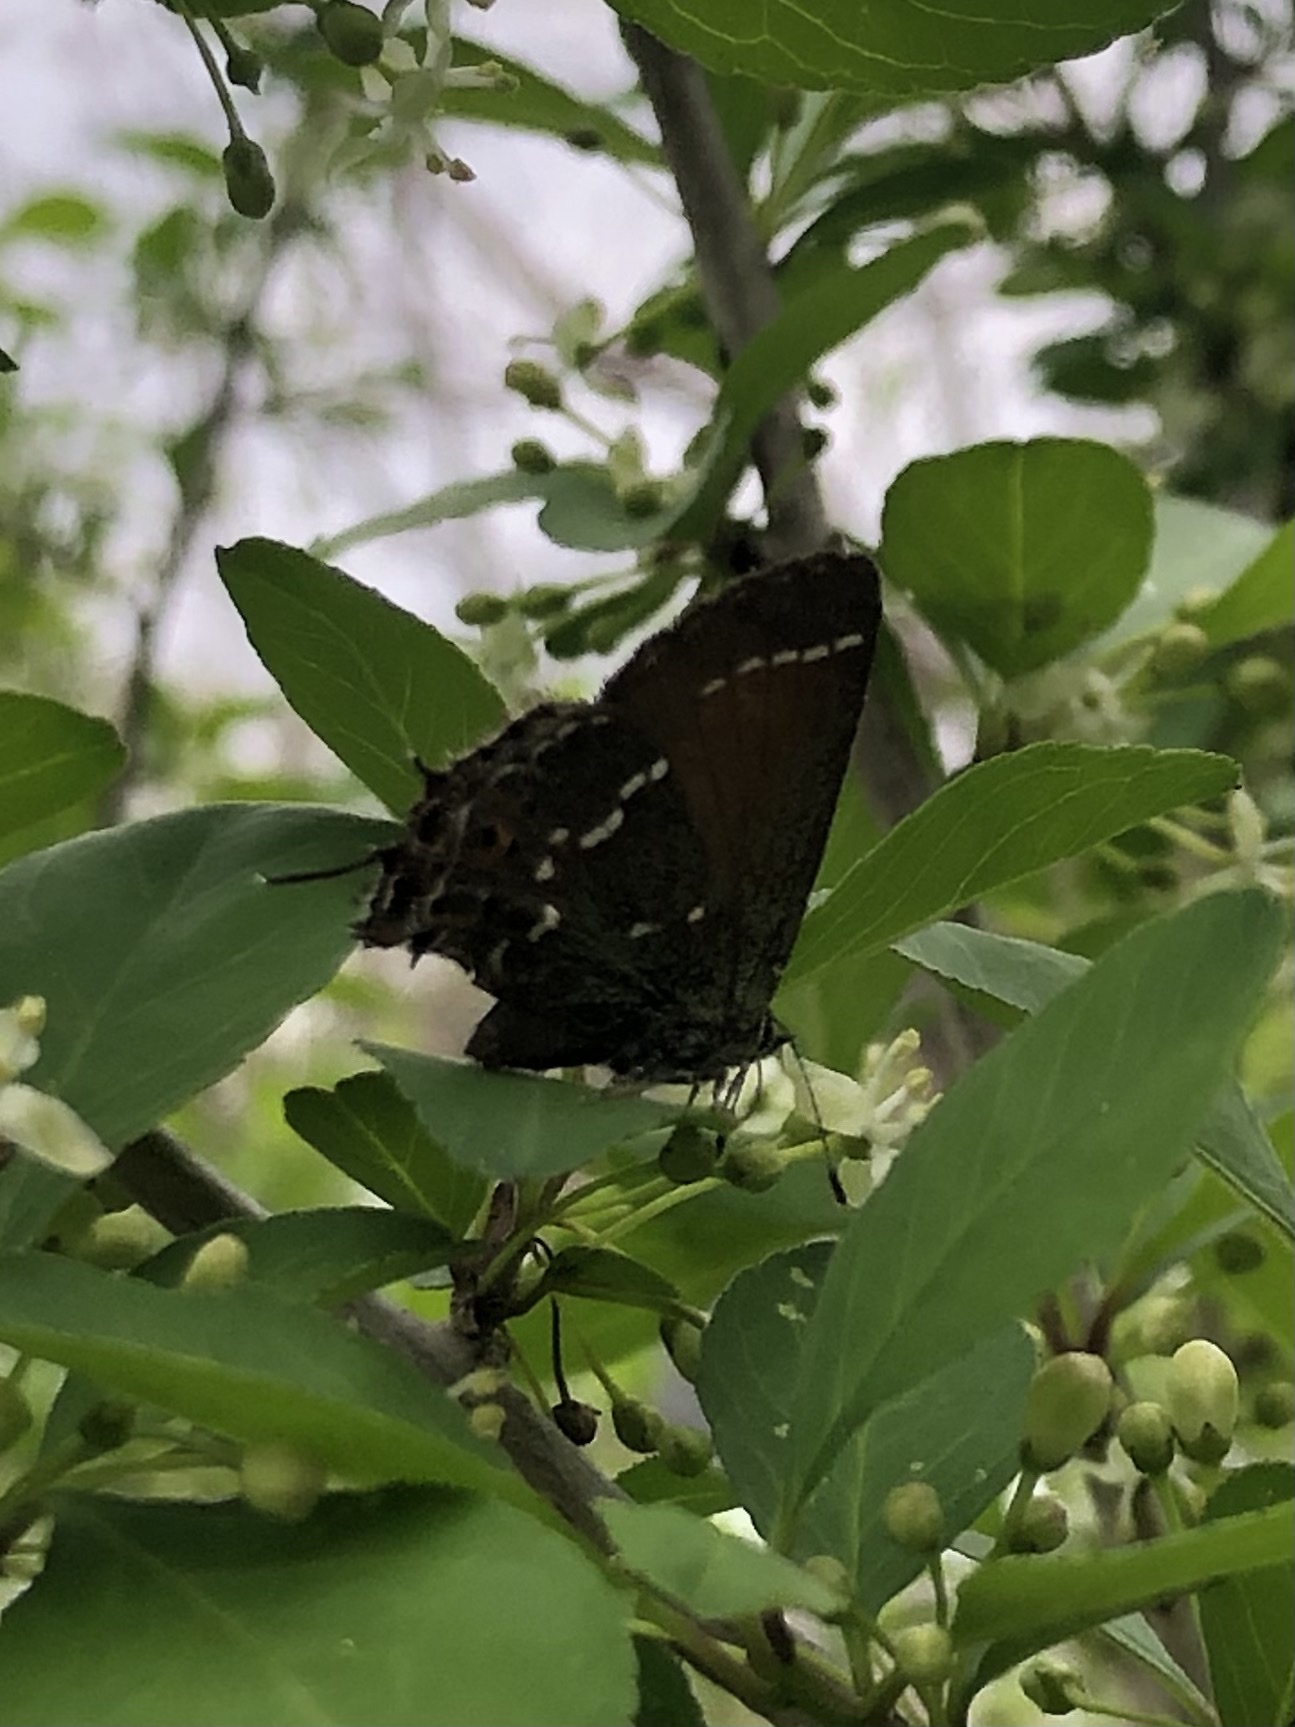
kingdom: Animalia
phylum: Arthropoda
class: Insecta
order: Lepidoptera
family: Lycaenidae
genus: Mitoura
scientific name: Mitoura gryneus
